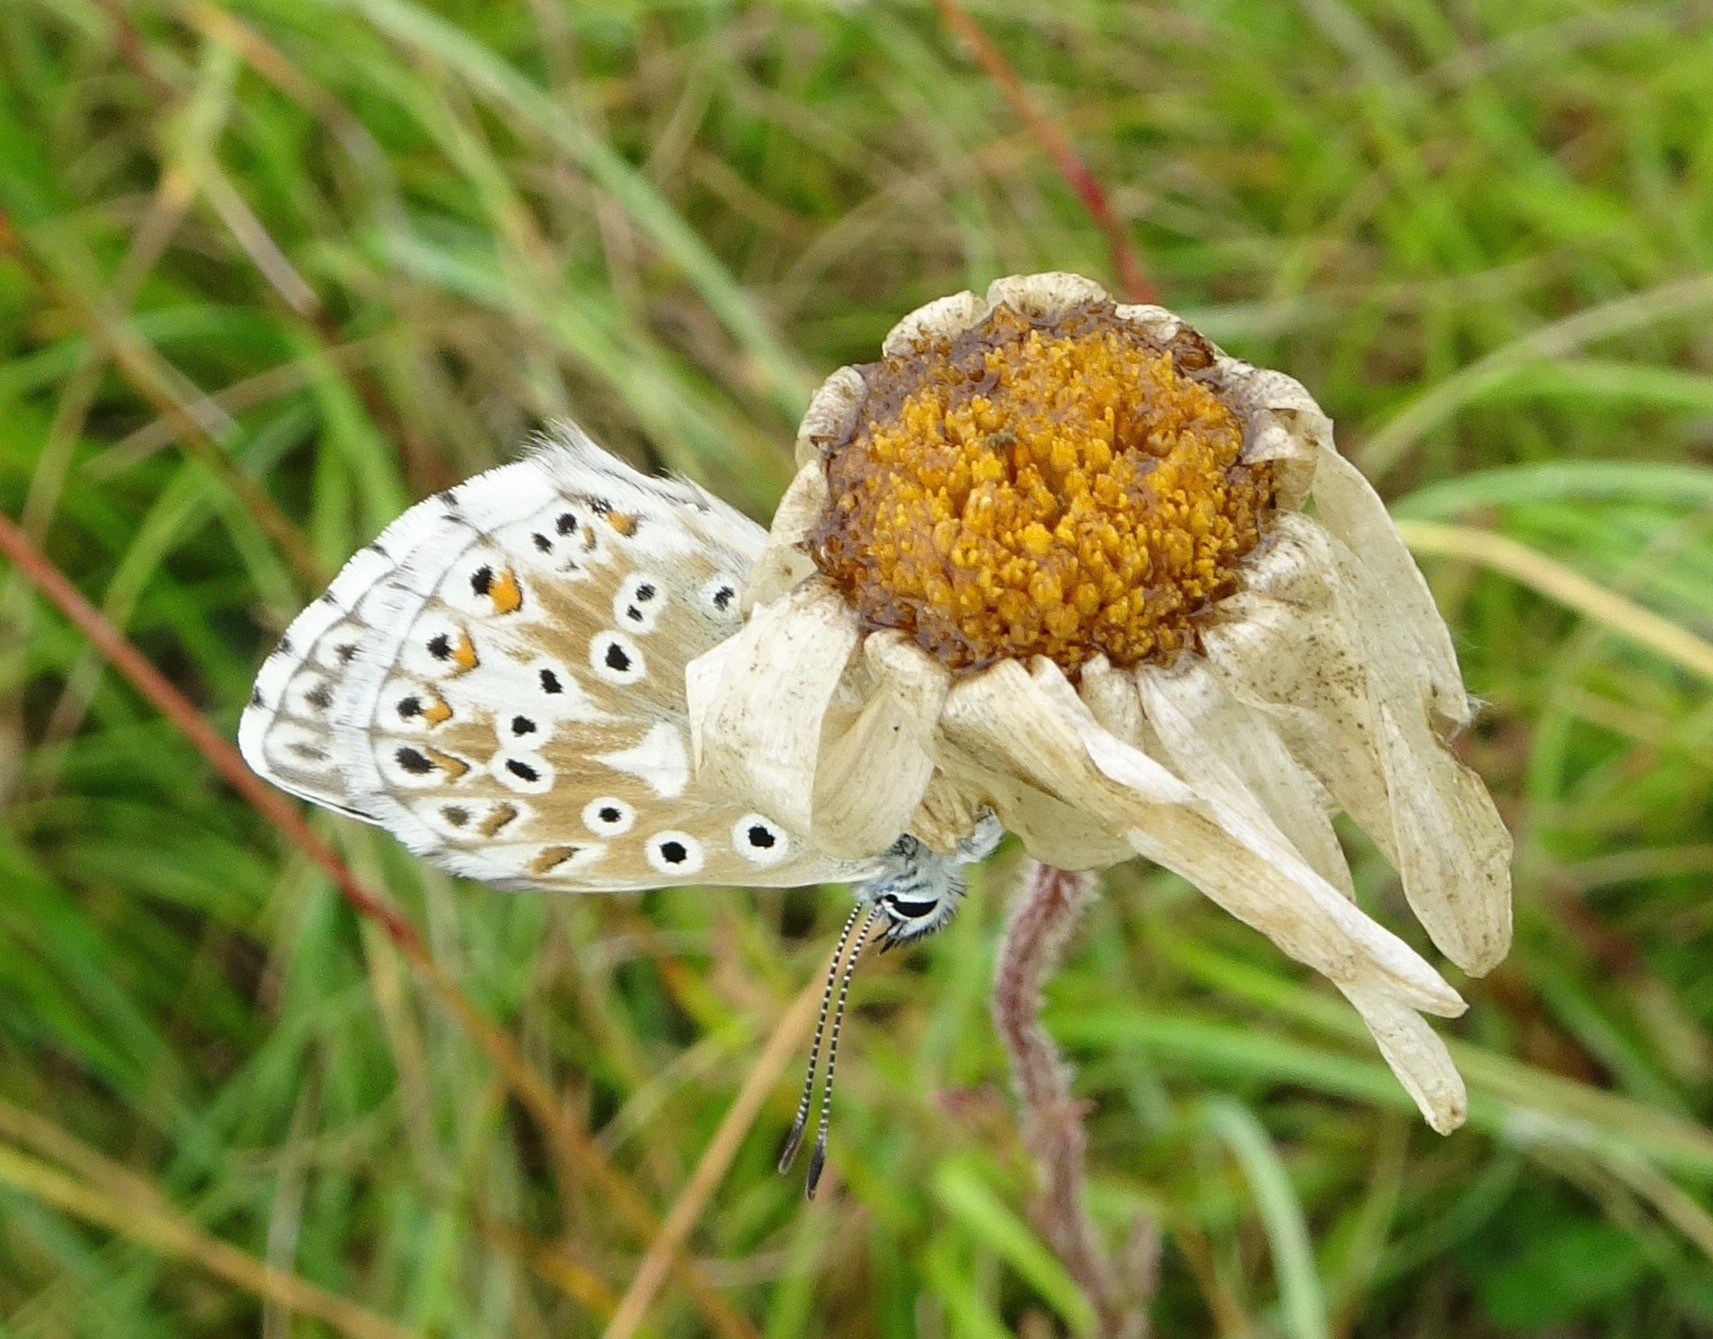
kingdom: Animalia
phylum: Arthropoda
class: Insecta
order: Lepidoptera
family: Lycaenidae
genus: Lysandra
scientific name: Lysandra coridon
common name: Chalkhill blue
